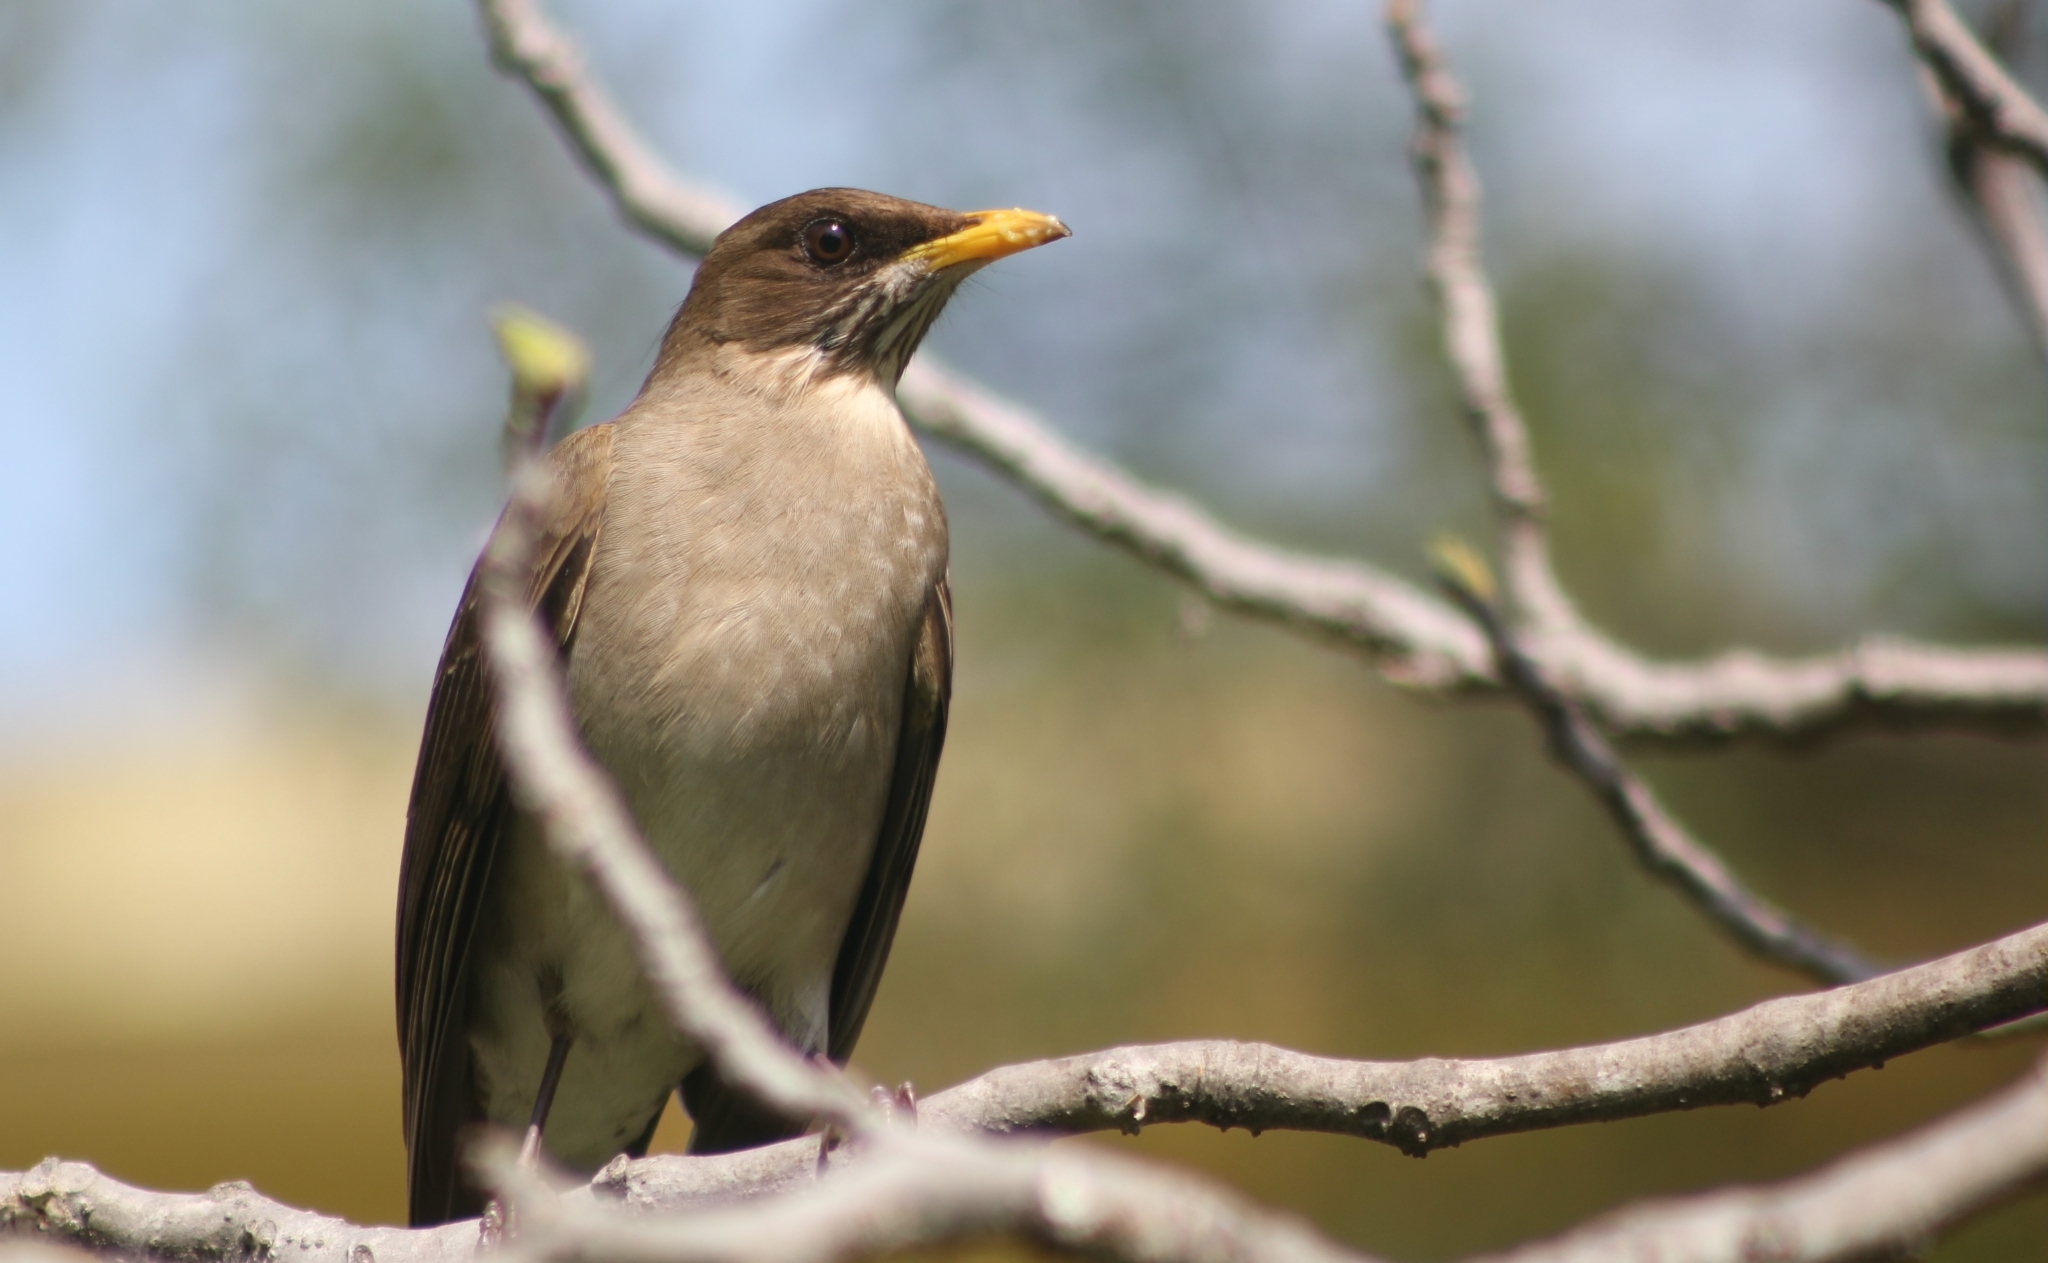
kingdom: Animalia
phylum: Chordata
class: Aves
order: Passeriformes
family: Turdidae
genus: Turdus
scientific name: Turdus amaurochalinus
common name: Creamy-bellied thrush
